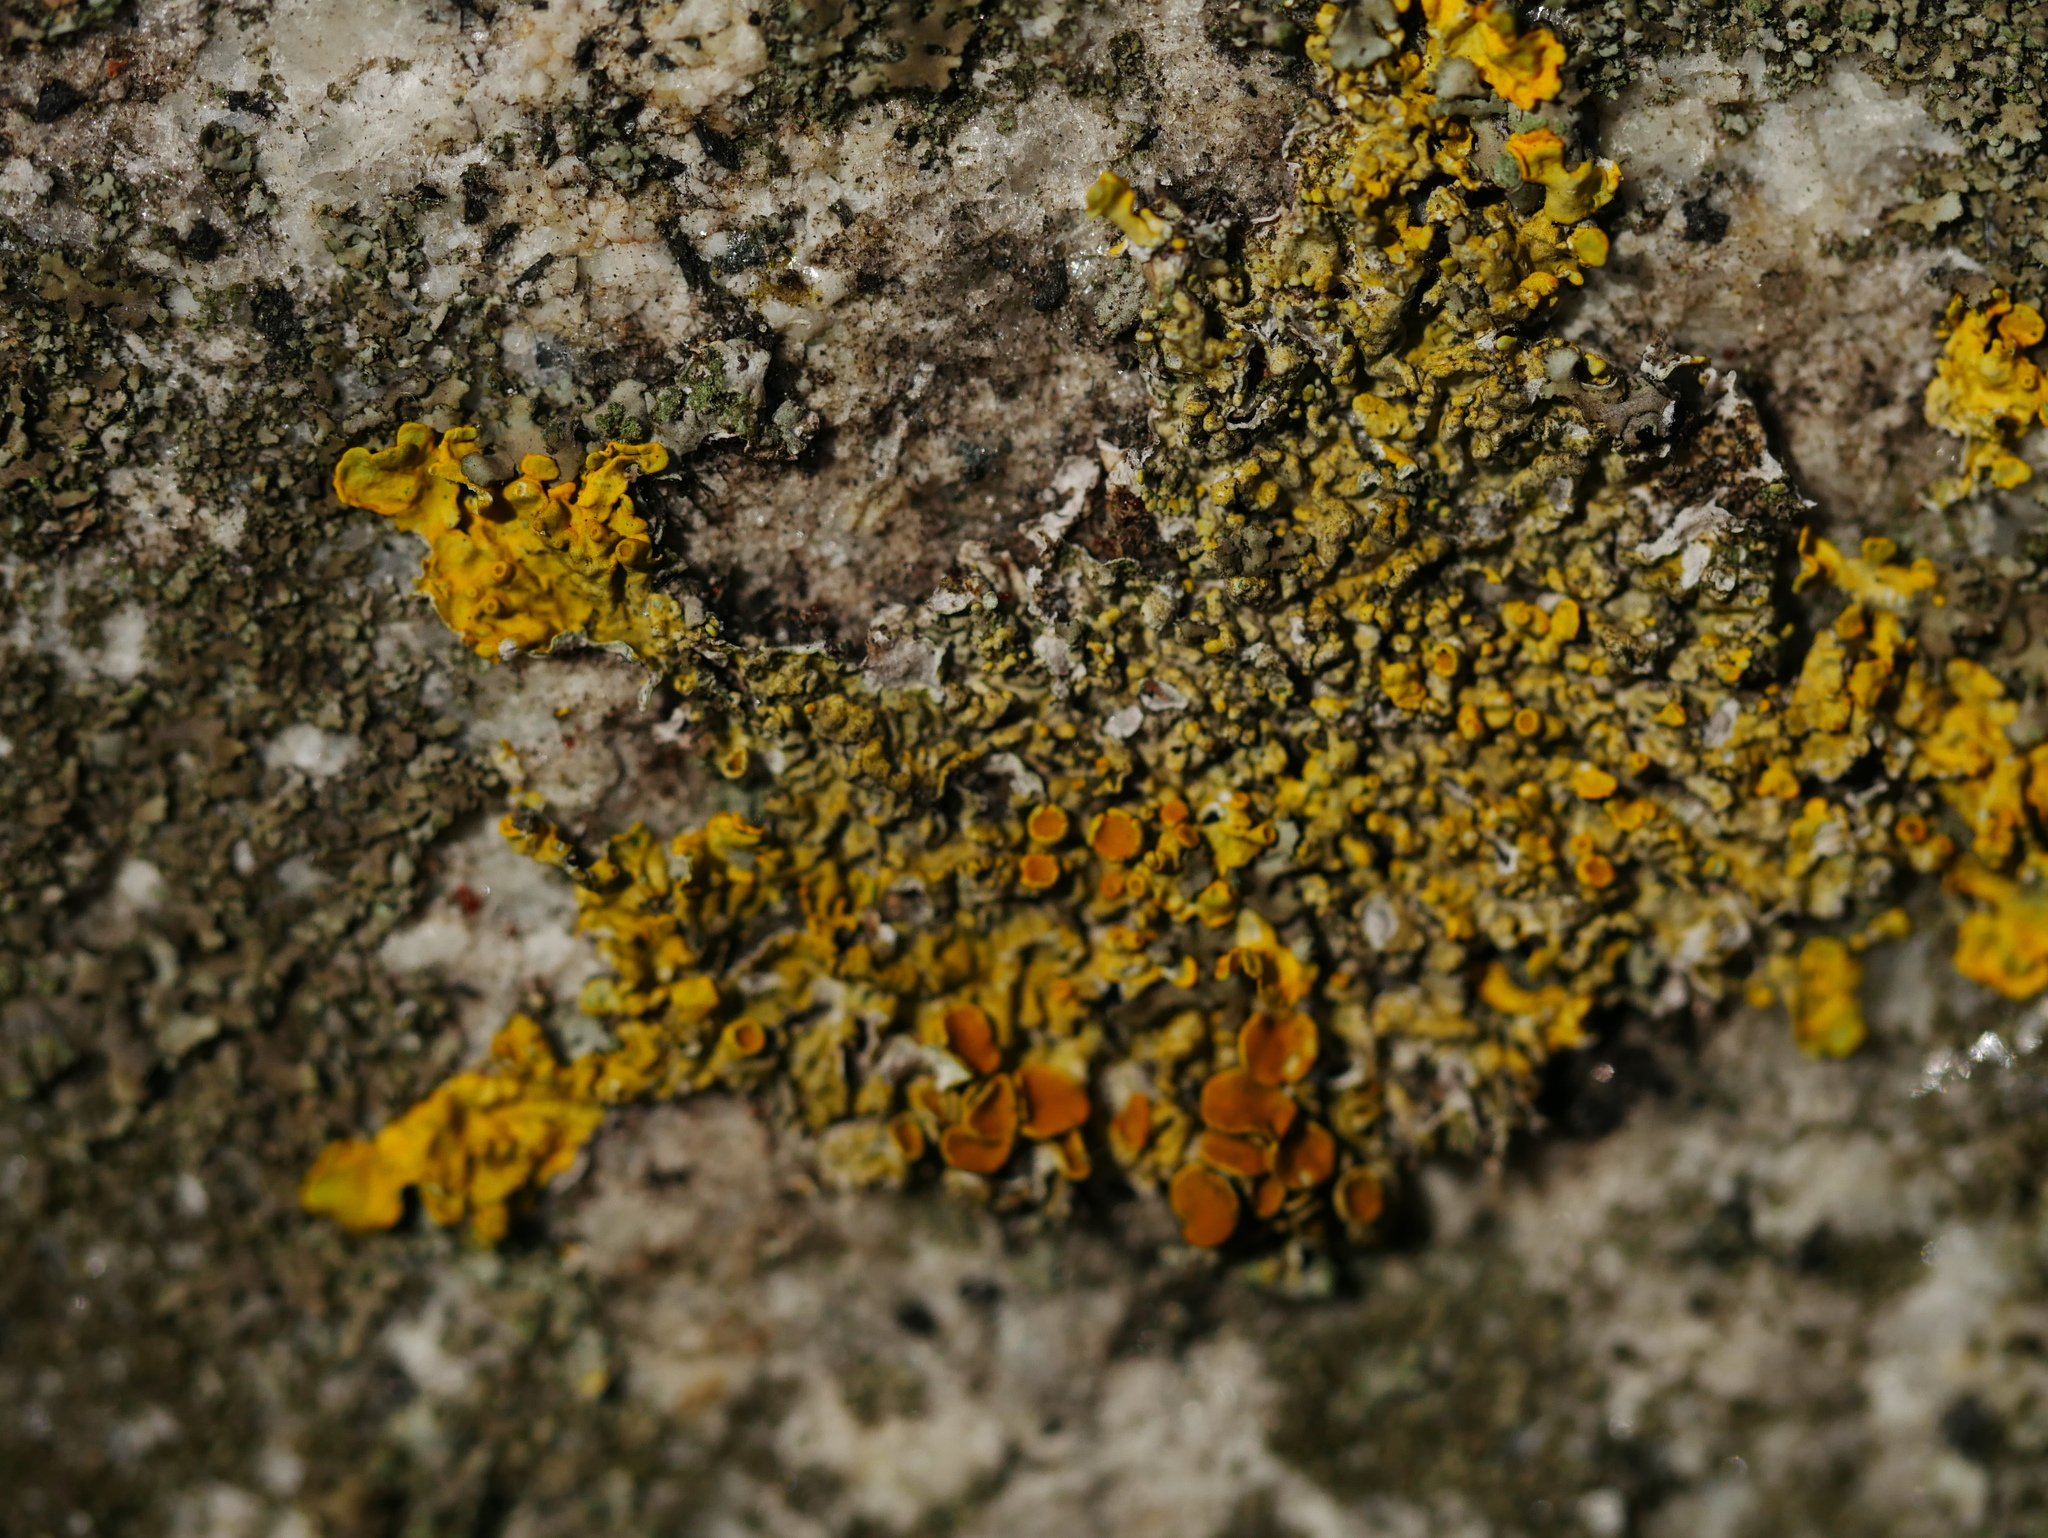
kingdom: Fungi
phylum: Ascomycota
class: Lecanoromycetes
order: Teloschistales
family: Teloschistaceae
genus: Xanthoria
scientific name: Xanthoria parietina
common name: Common orange lichen
